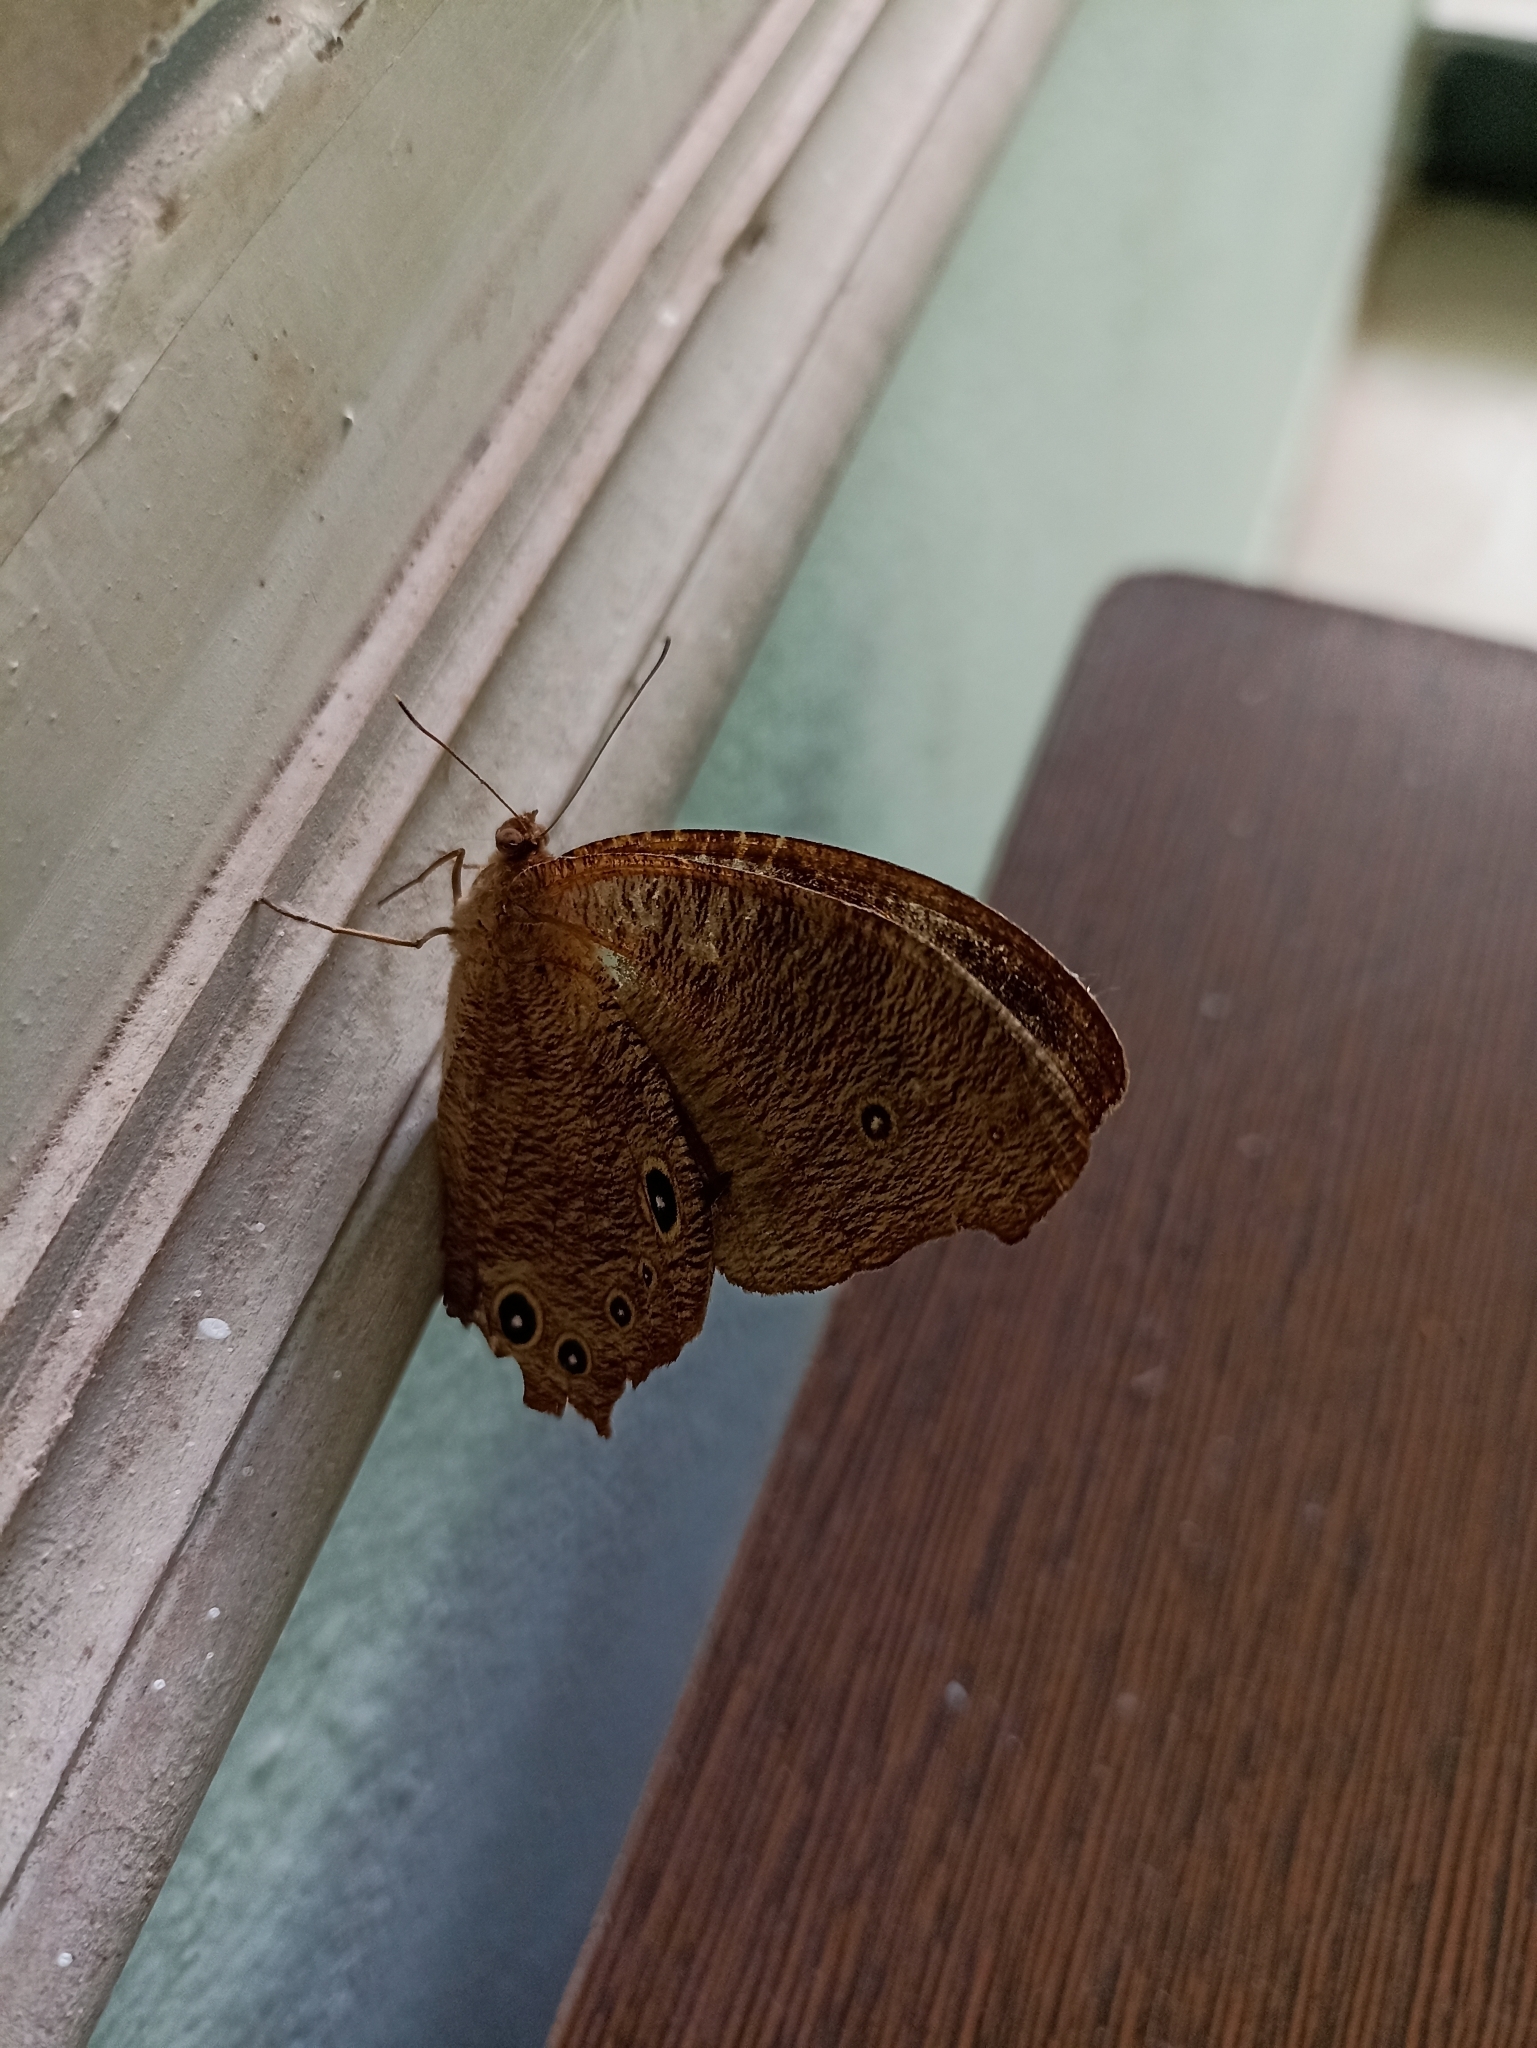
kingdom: Animalia
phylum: Arthropoda
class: Insecta
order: Lepidoptera
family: Nymphalidae
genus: Melanitis
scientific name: Melanitis leda
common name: Twilight brown
